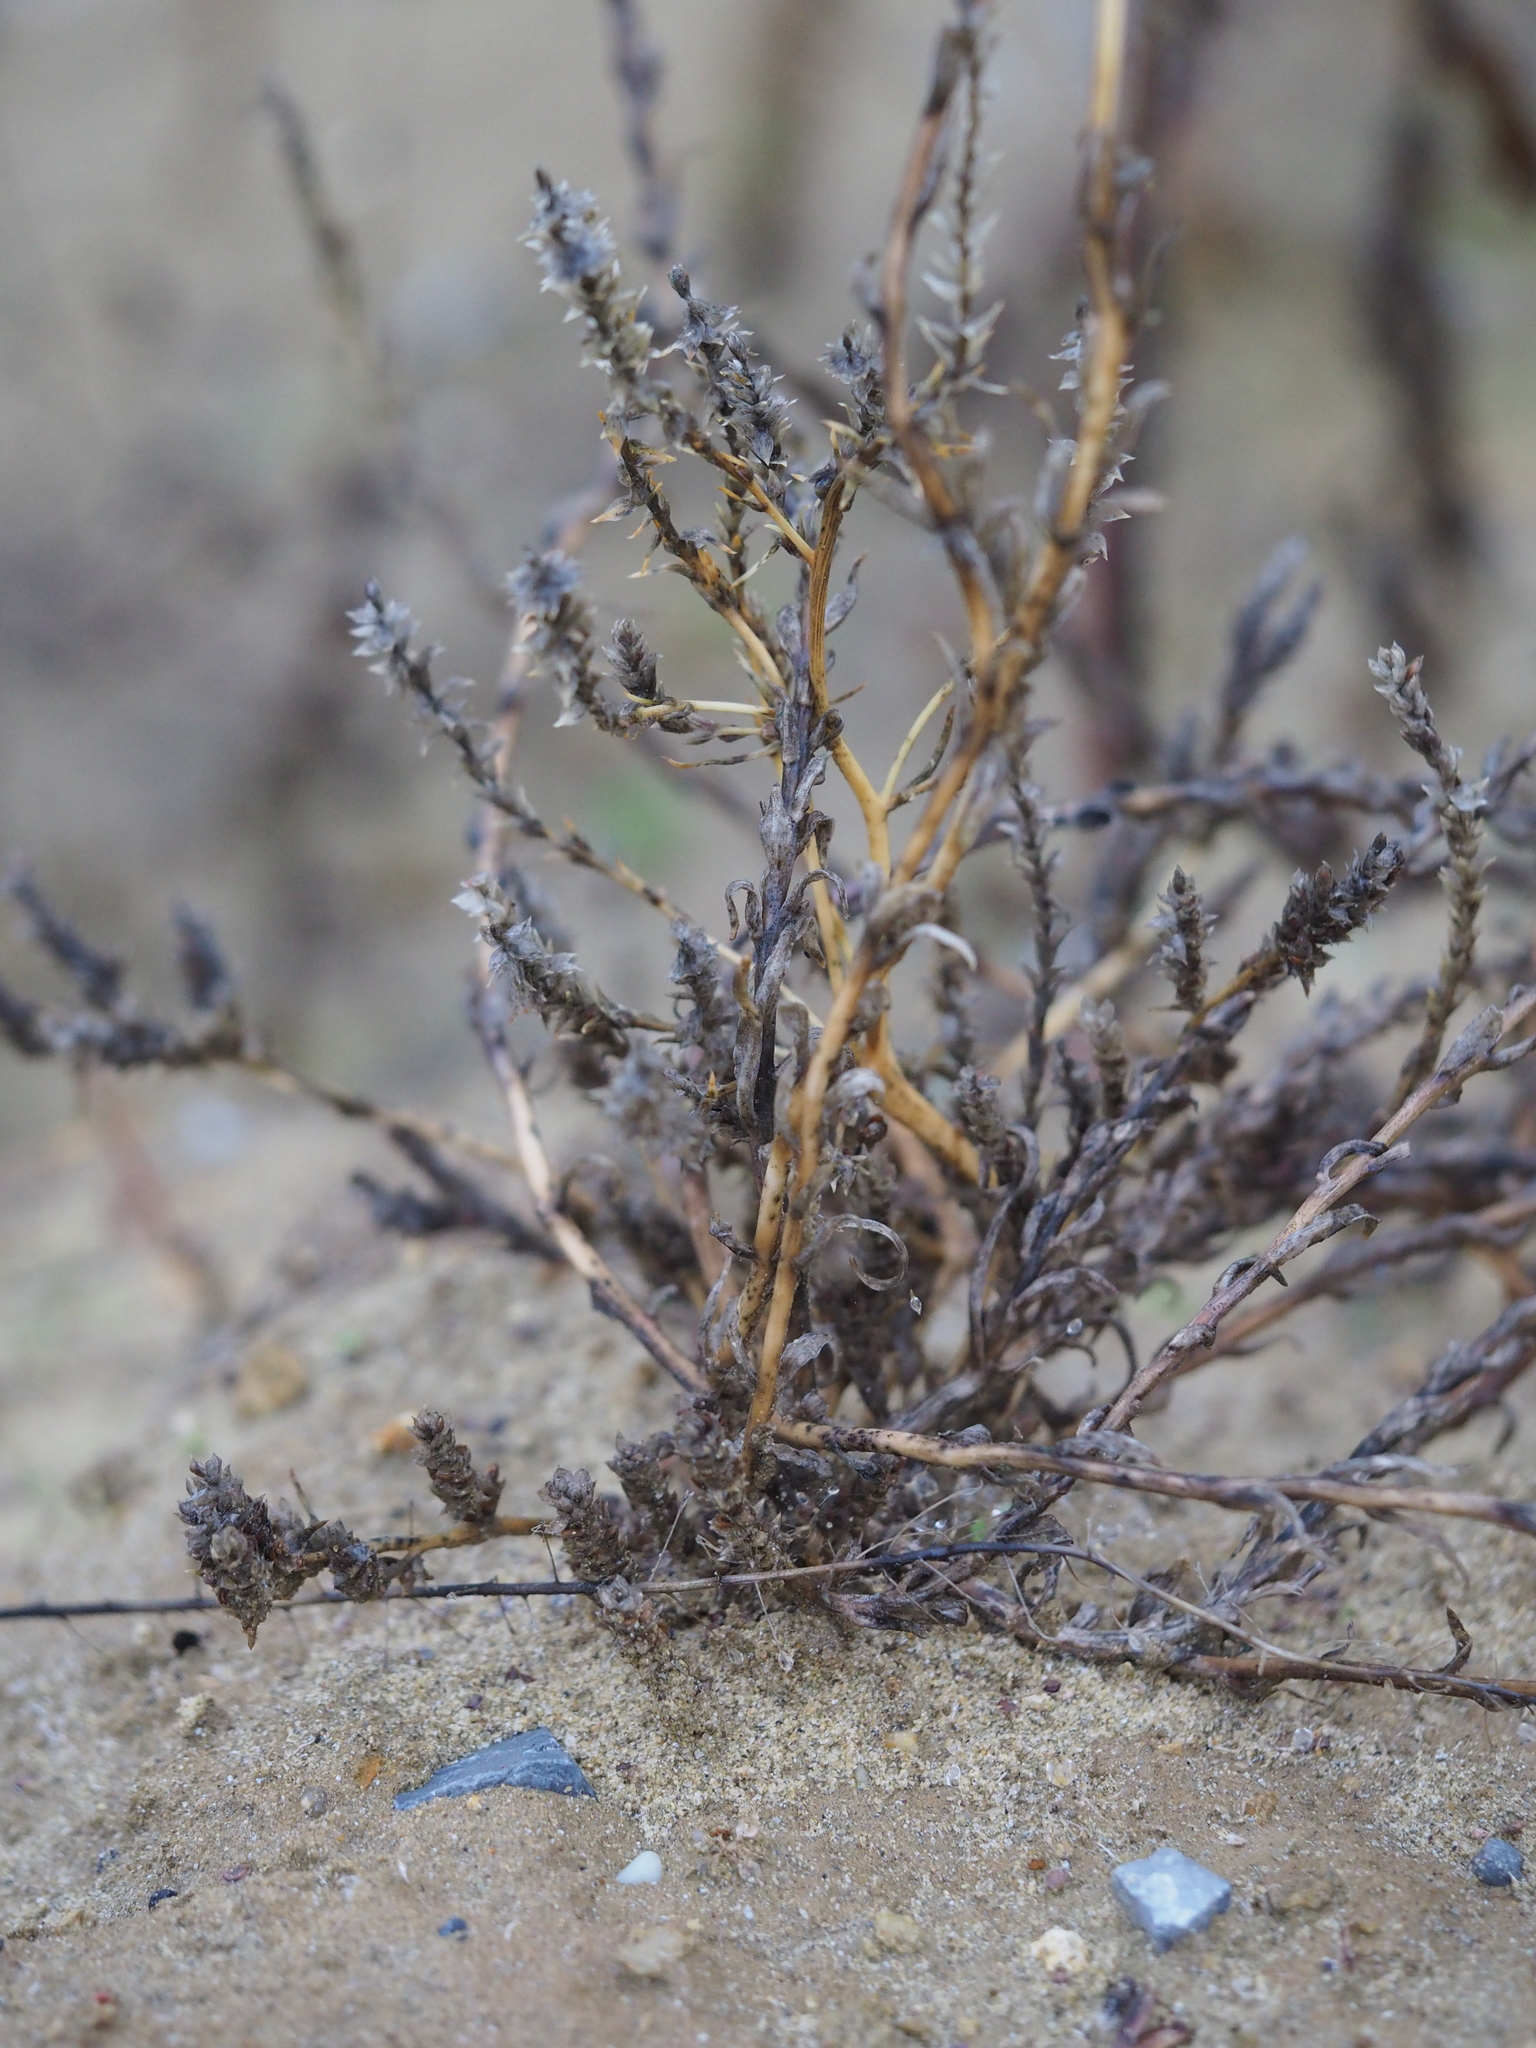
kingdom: Plantae
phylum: Tracheophyta
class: Magnoliopsida
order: Caryophyllales
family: Amaranthaceae
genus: Corispermum
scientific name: Corispermum pallasii
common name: Siberian bugseed
